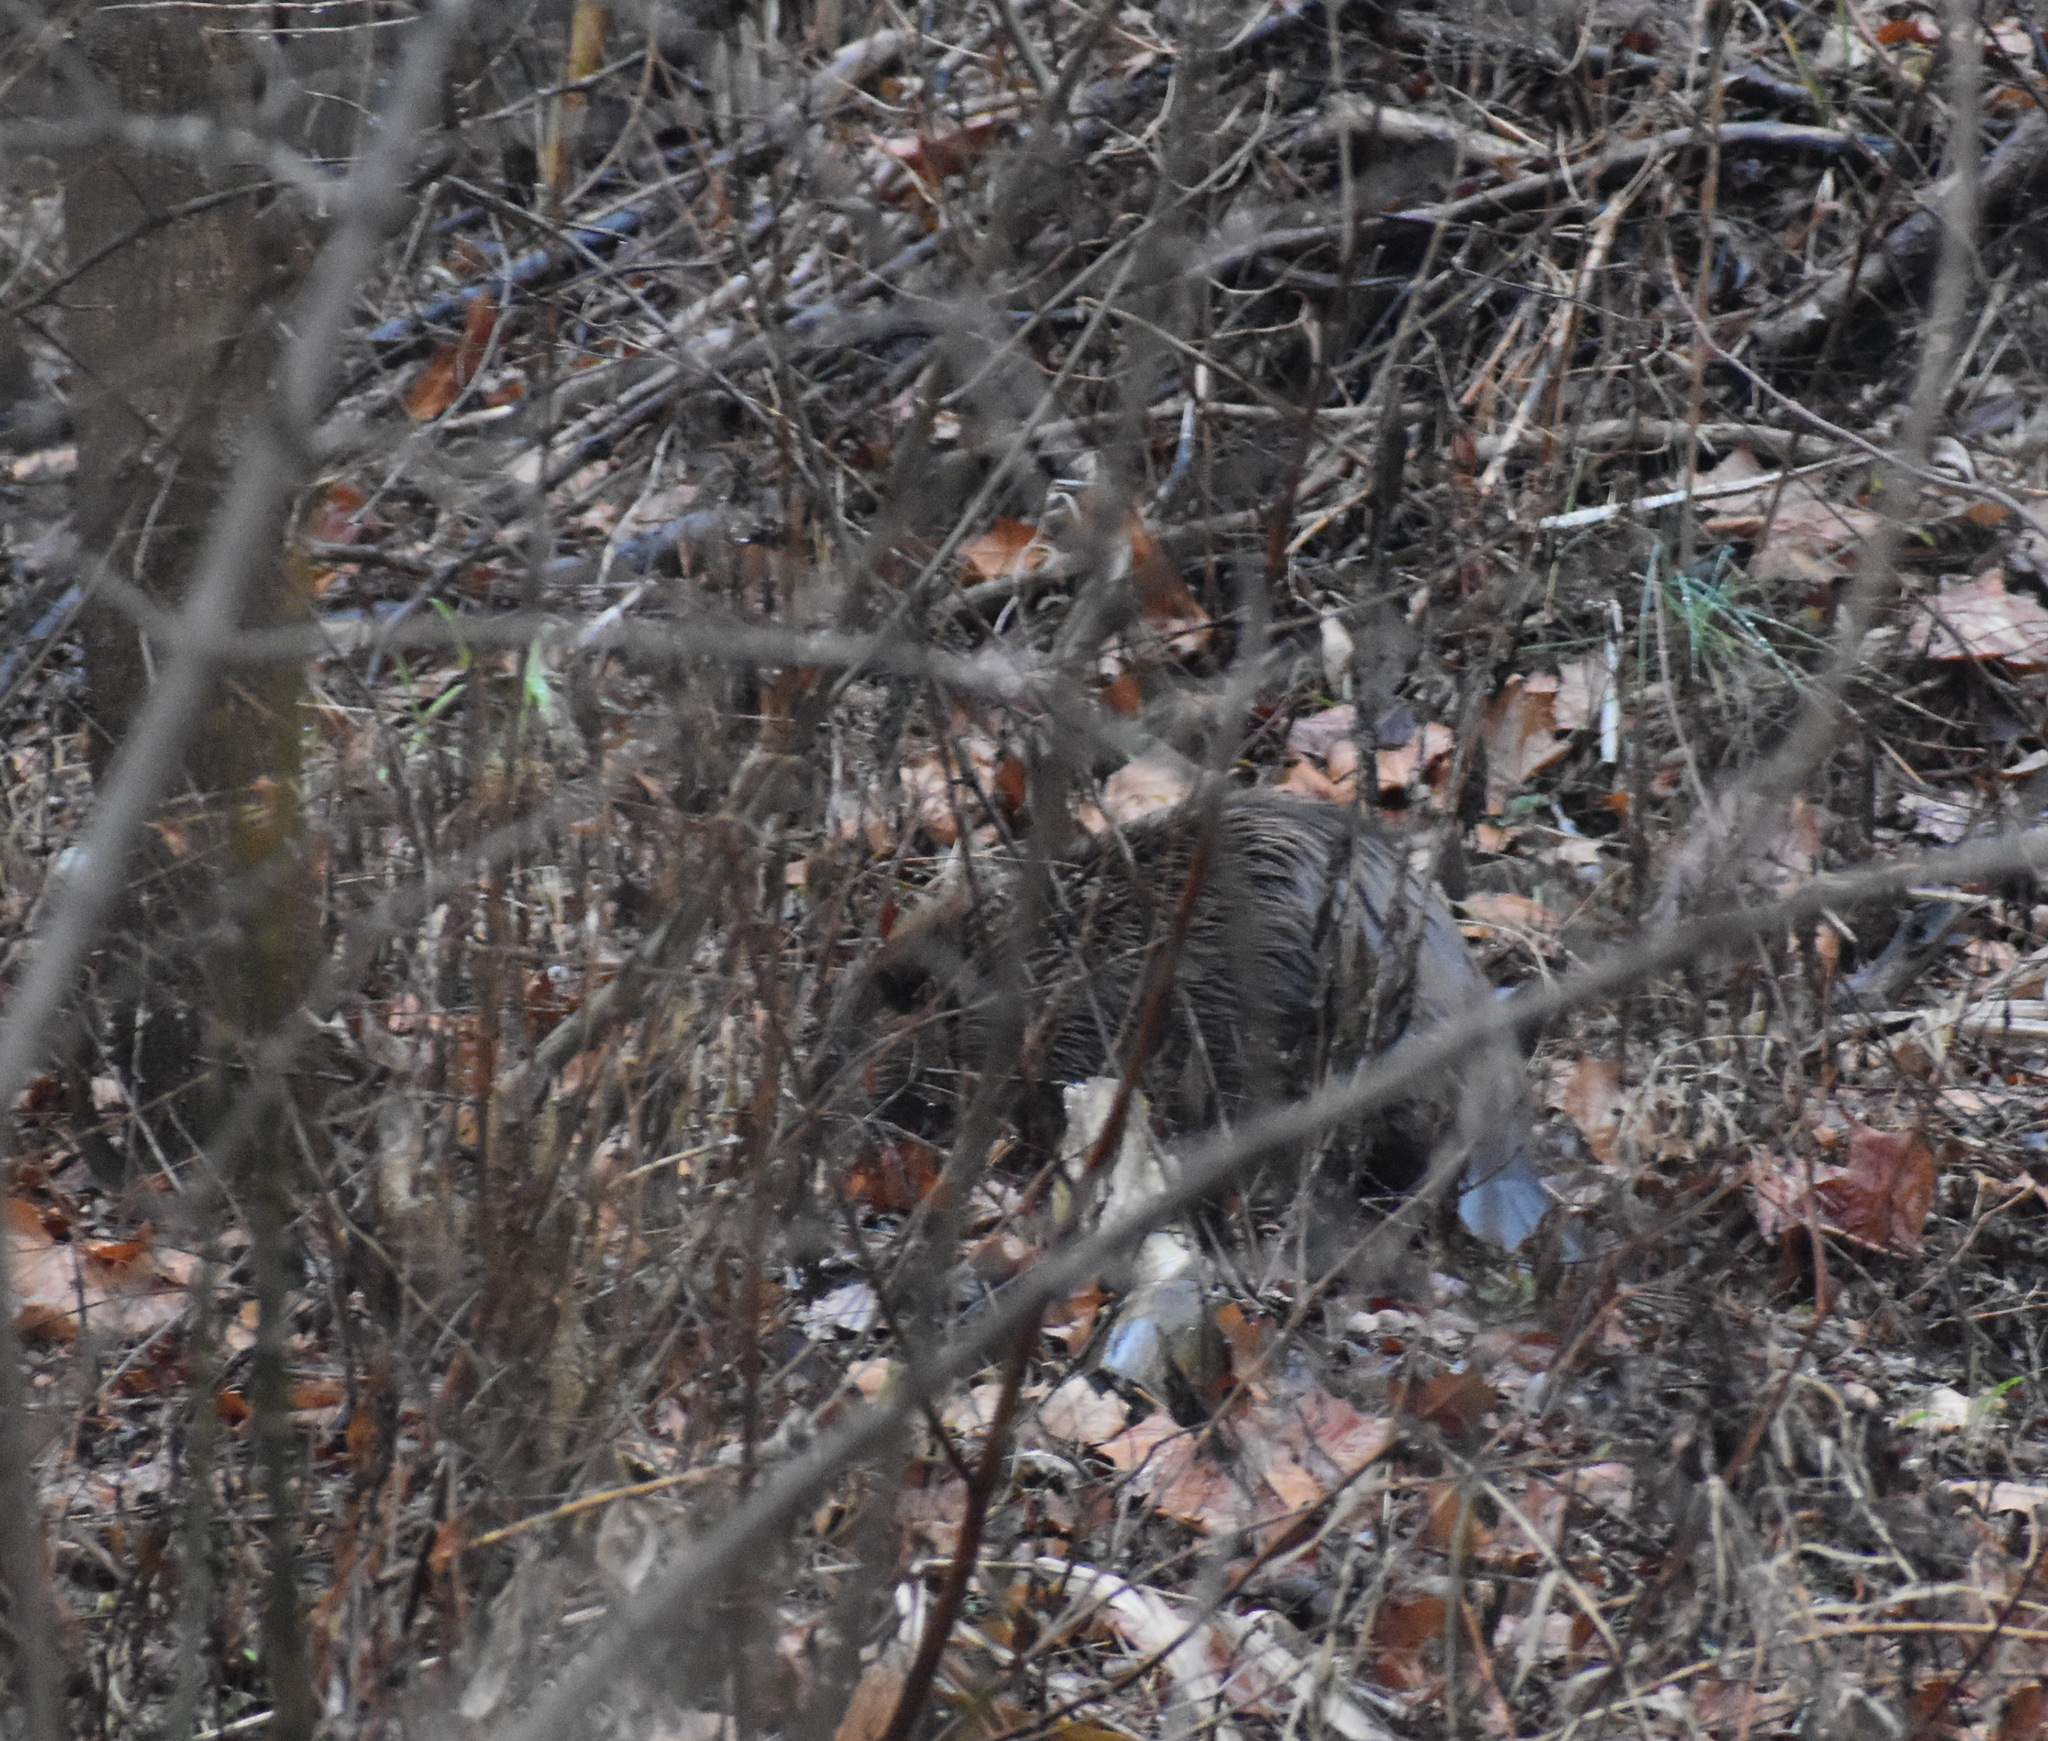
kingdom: Animalia
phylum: Chordata
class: Mammalia
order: Rodentia
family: Castoridae
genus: Castor
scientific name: Castor canadensis
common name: American beaver
